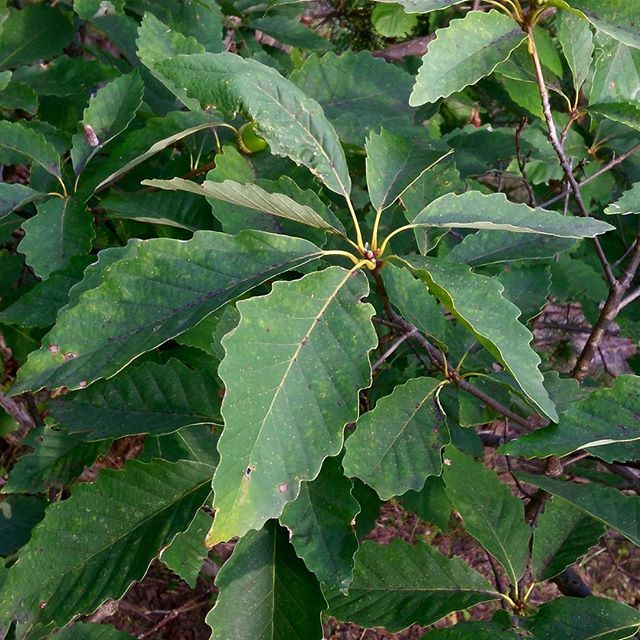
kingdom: Plantae
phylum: Tracheophyta
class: Magnoliopsida
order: Fagales
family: Fagaceae
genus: Quercus
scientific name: Quercus montana
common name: Chestnut oak
